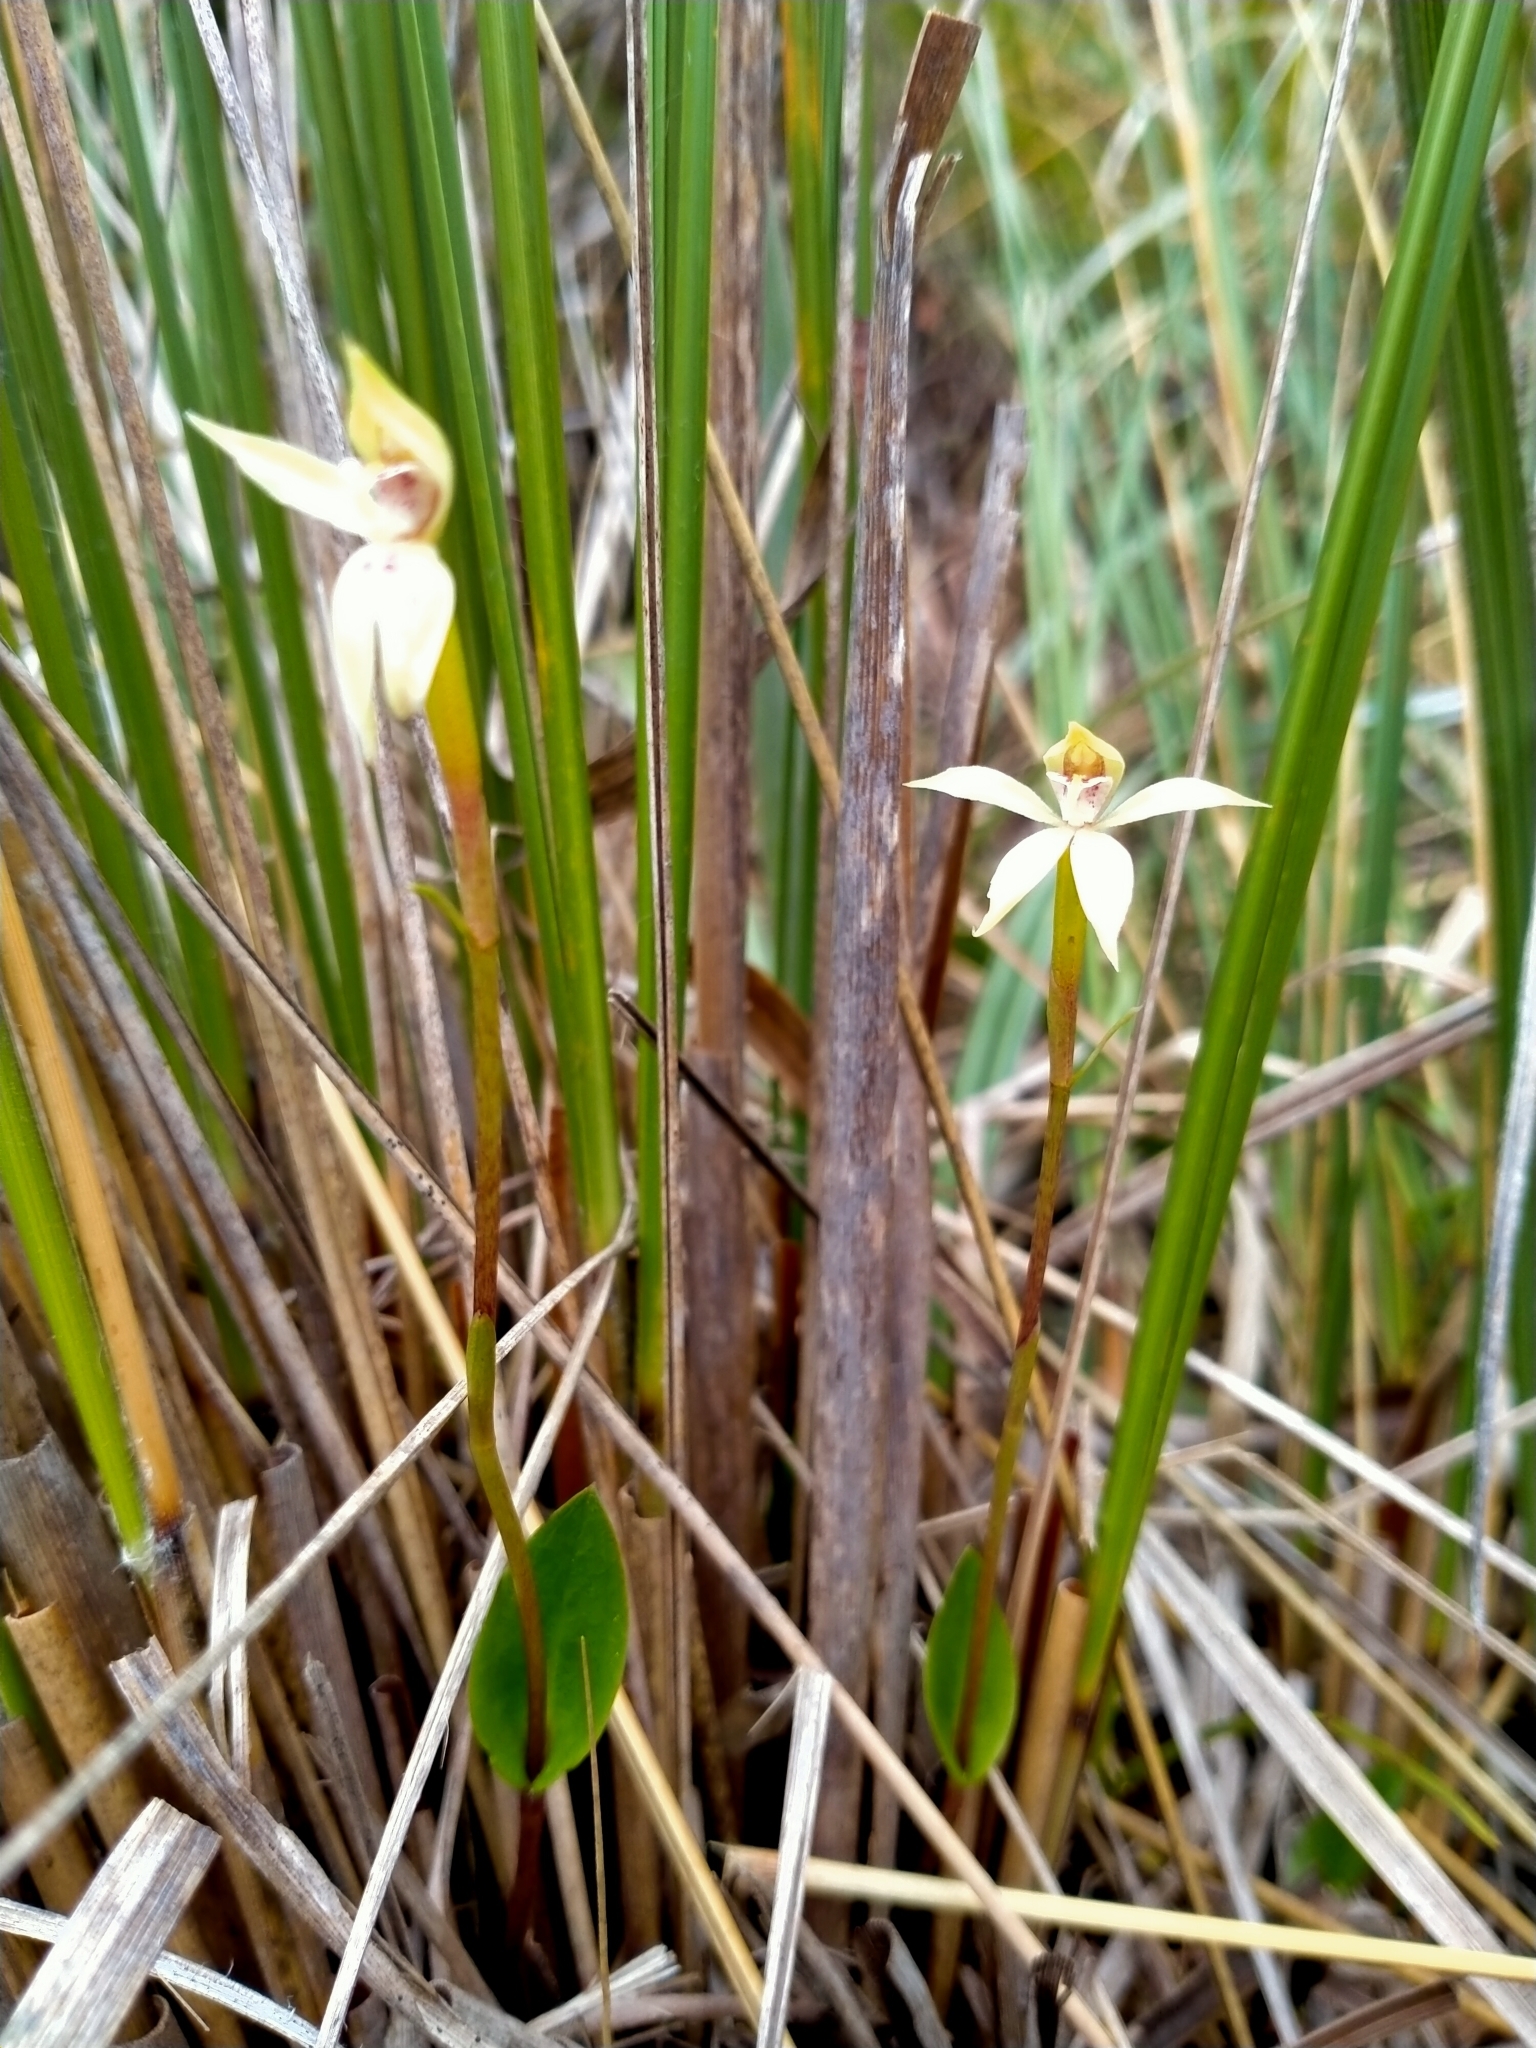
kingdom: Plantae
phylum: Tracheophyta
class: Liliopsida
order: Asparagales
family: Orchidaceae
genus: Adenochilus
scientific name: Adenochilus gracilis
